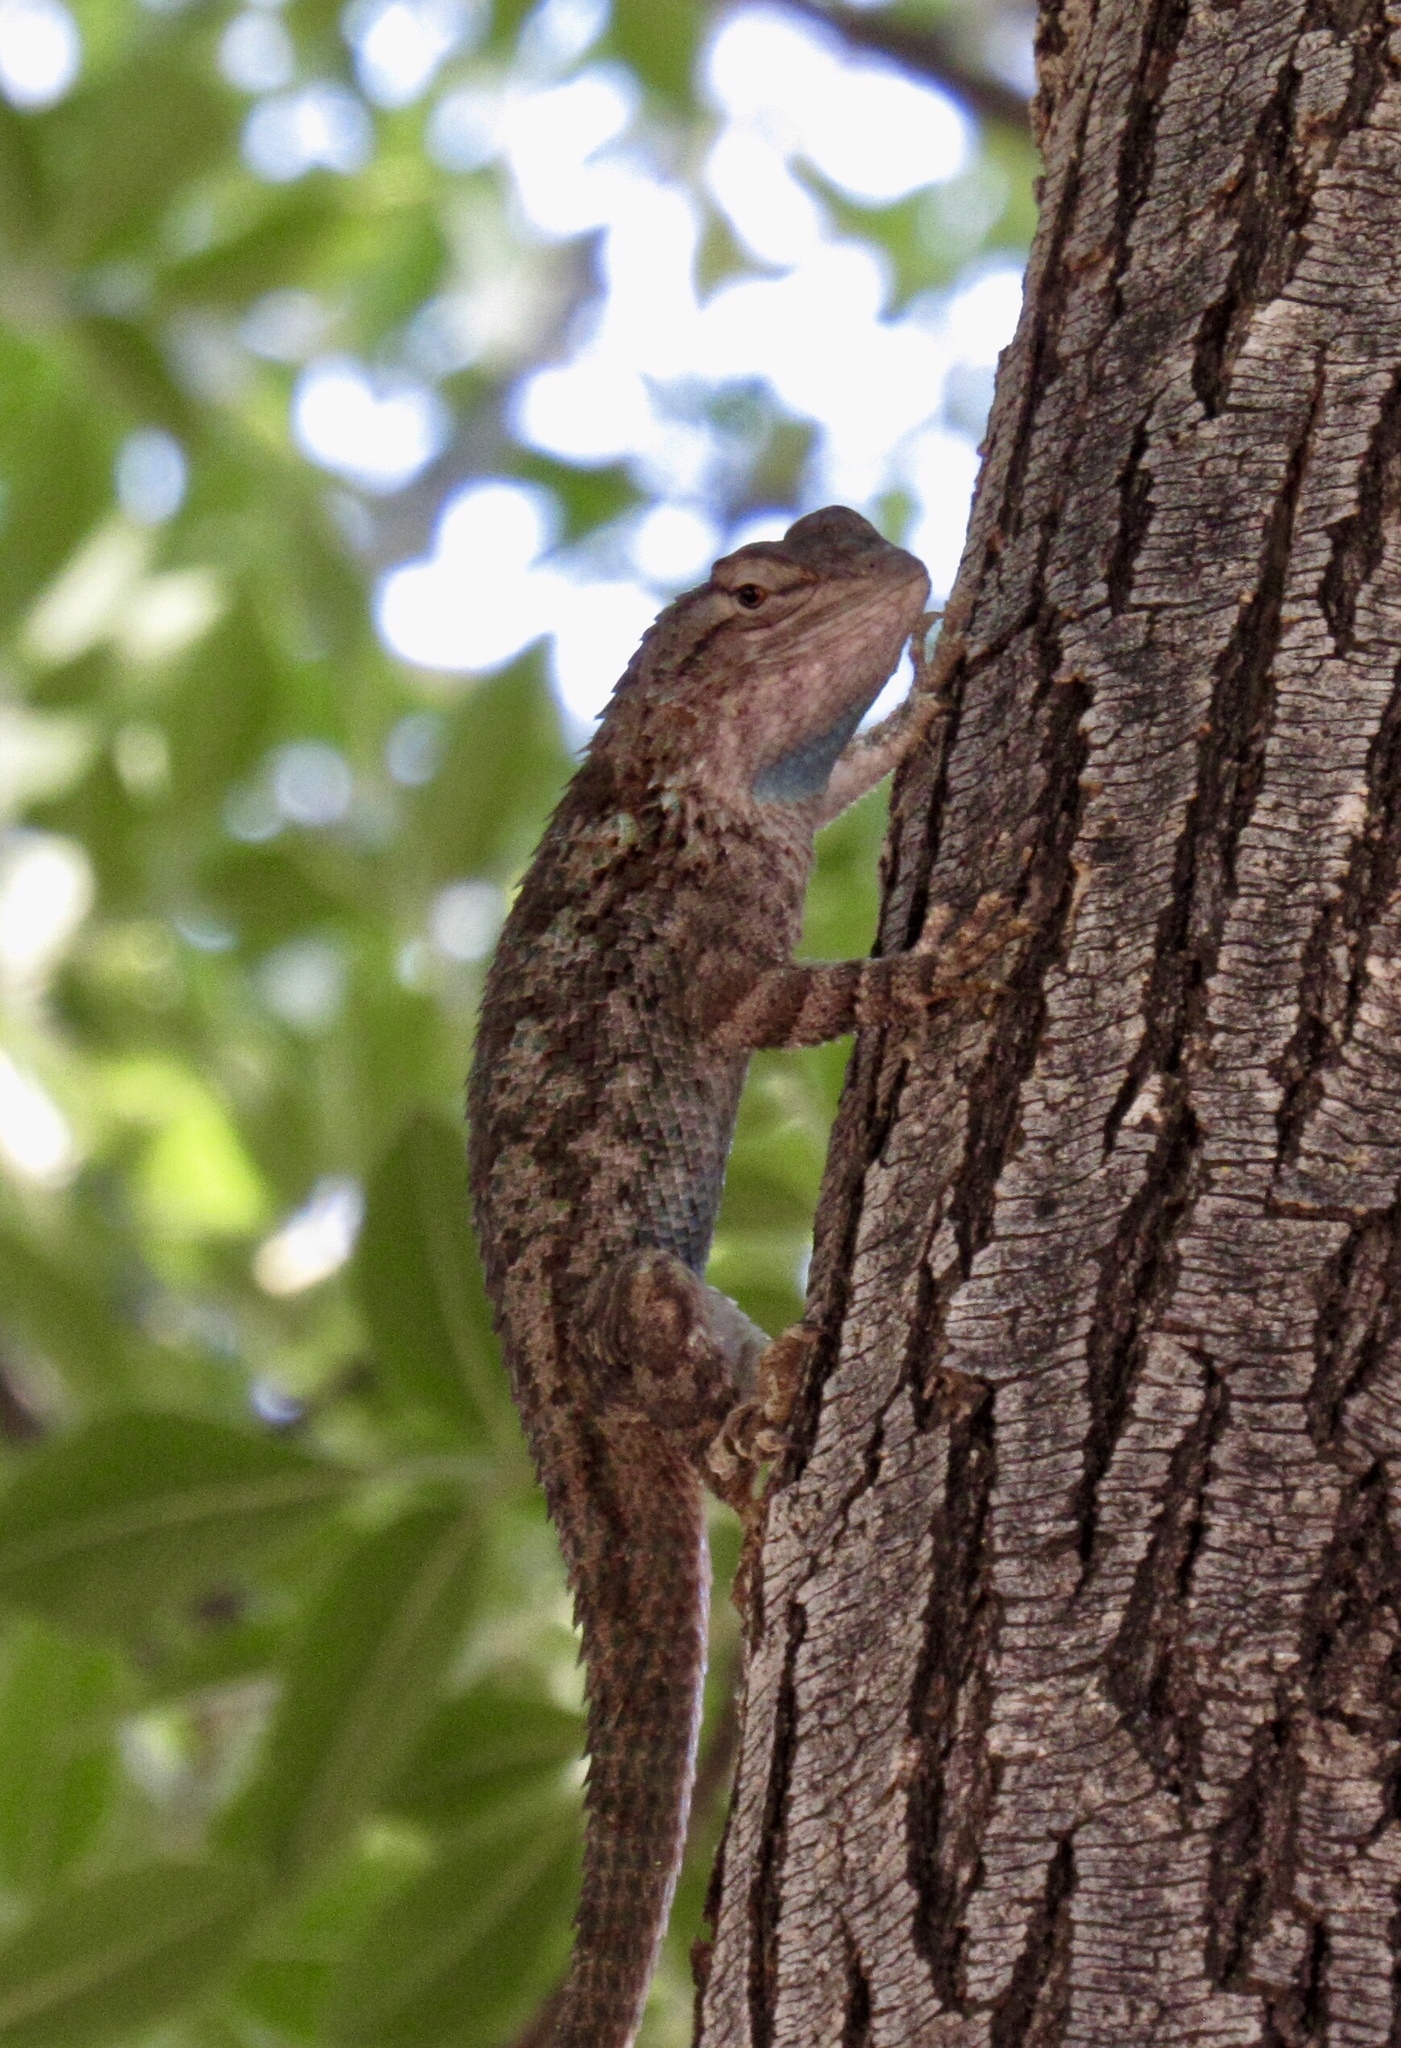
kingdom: Animalia
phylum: Chordata
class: Squamata
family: Phrynosomatidae
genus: Sceloporus
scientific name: Sceloporus clarkii
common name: Clark's spiny lizard
